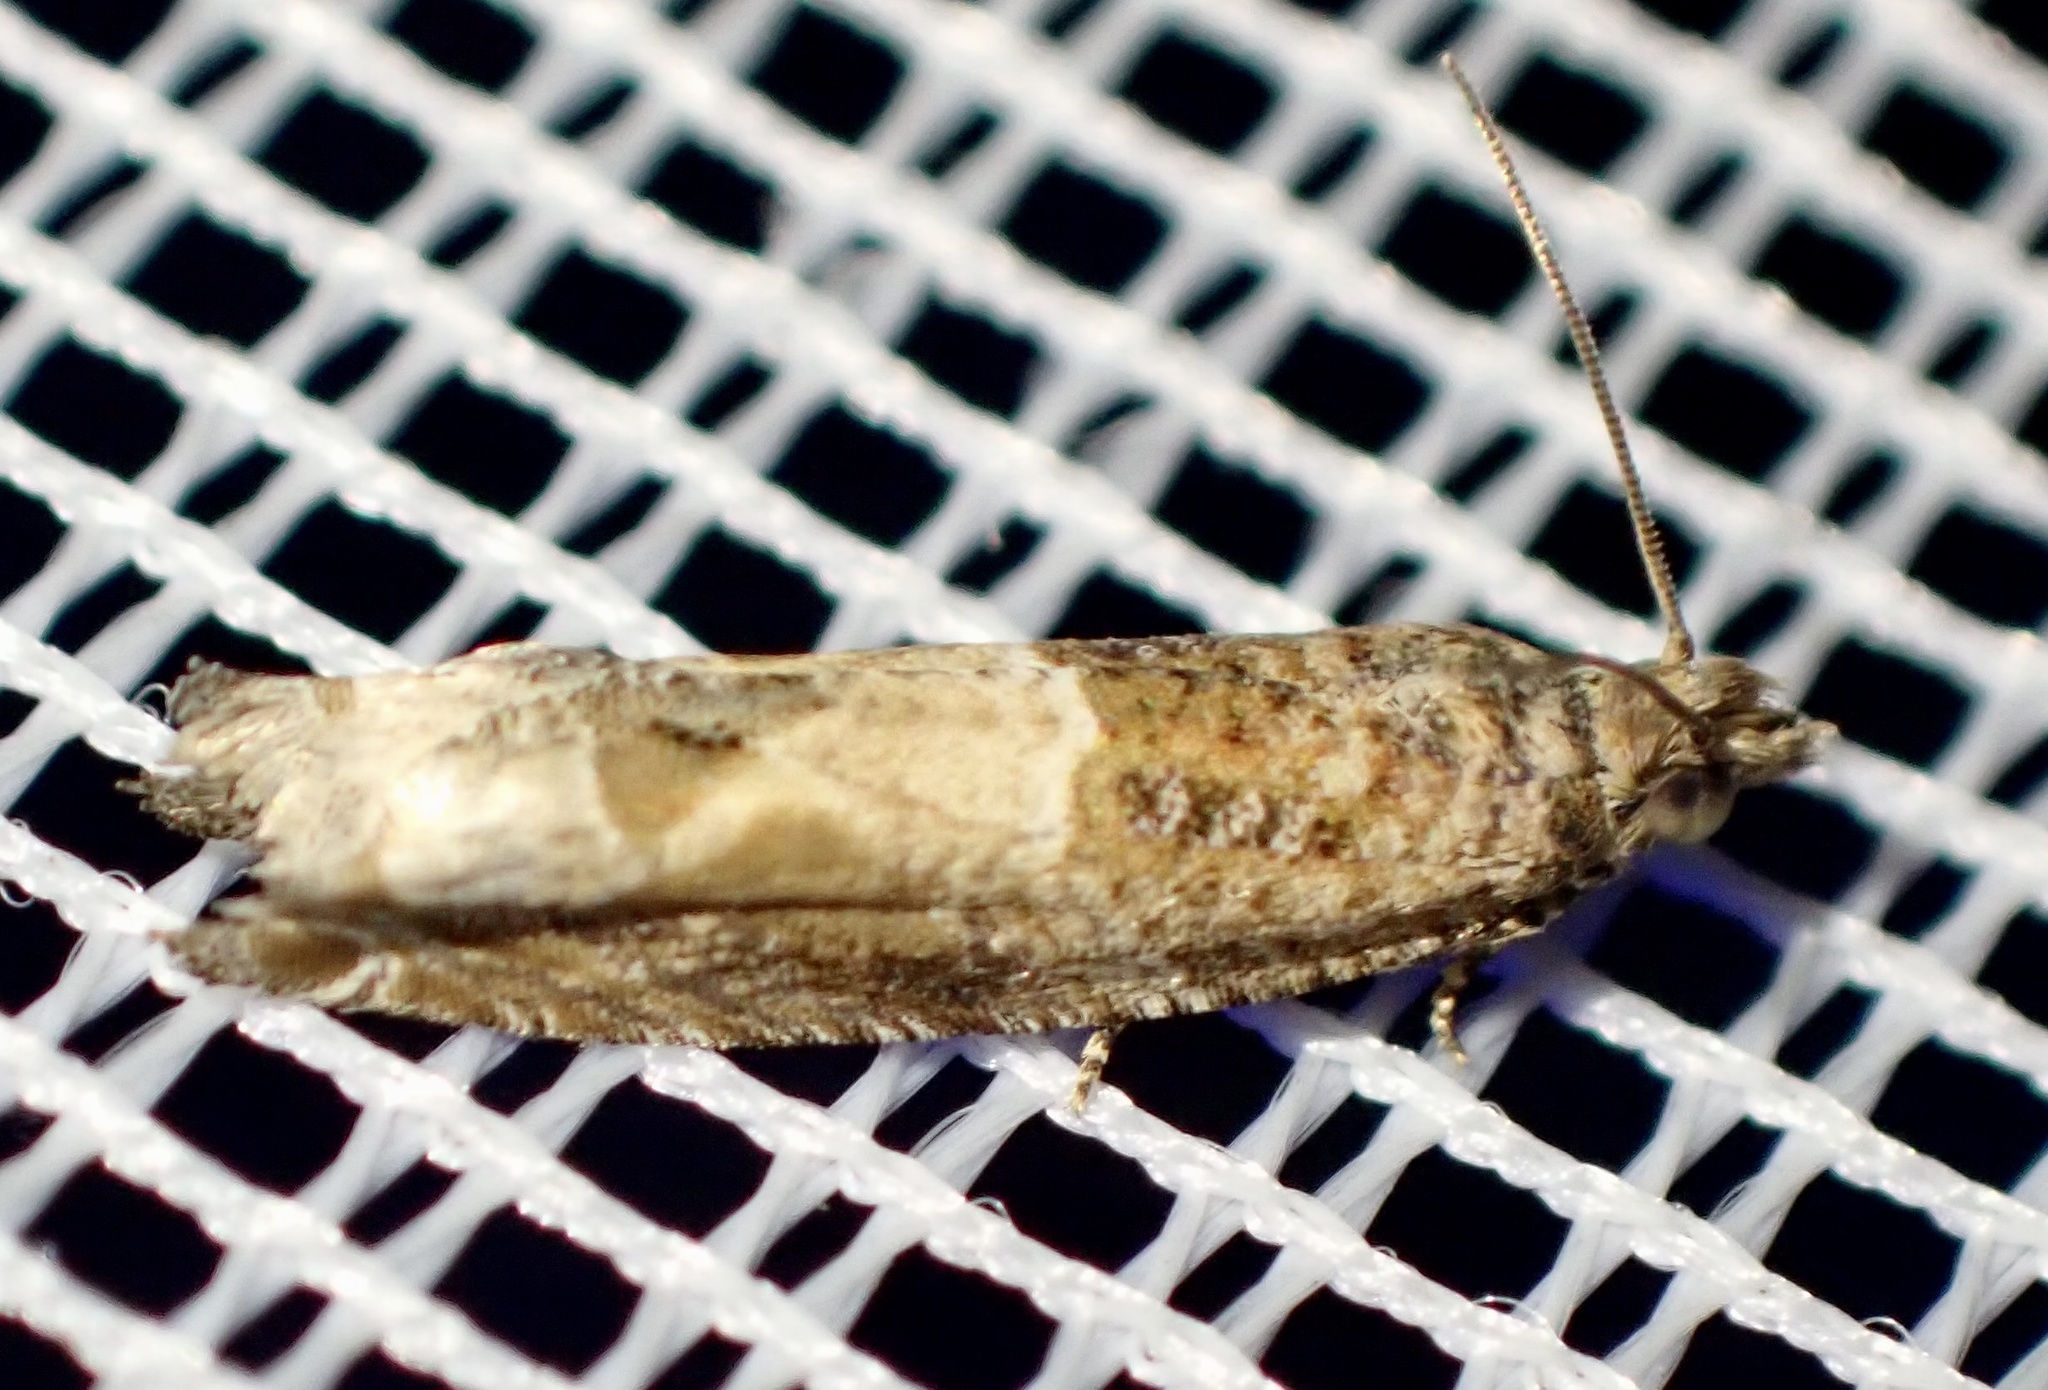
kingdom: Animalia
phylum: Arthropoda
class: Insecta
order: Lepidoptera
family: Tortricidae
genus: Crocidosema
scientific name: Crocidosema plebejana
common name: Southern bell
